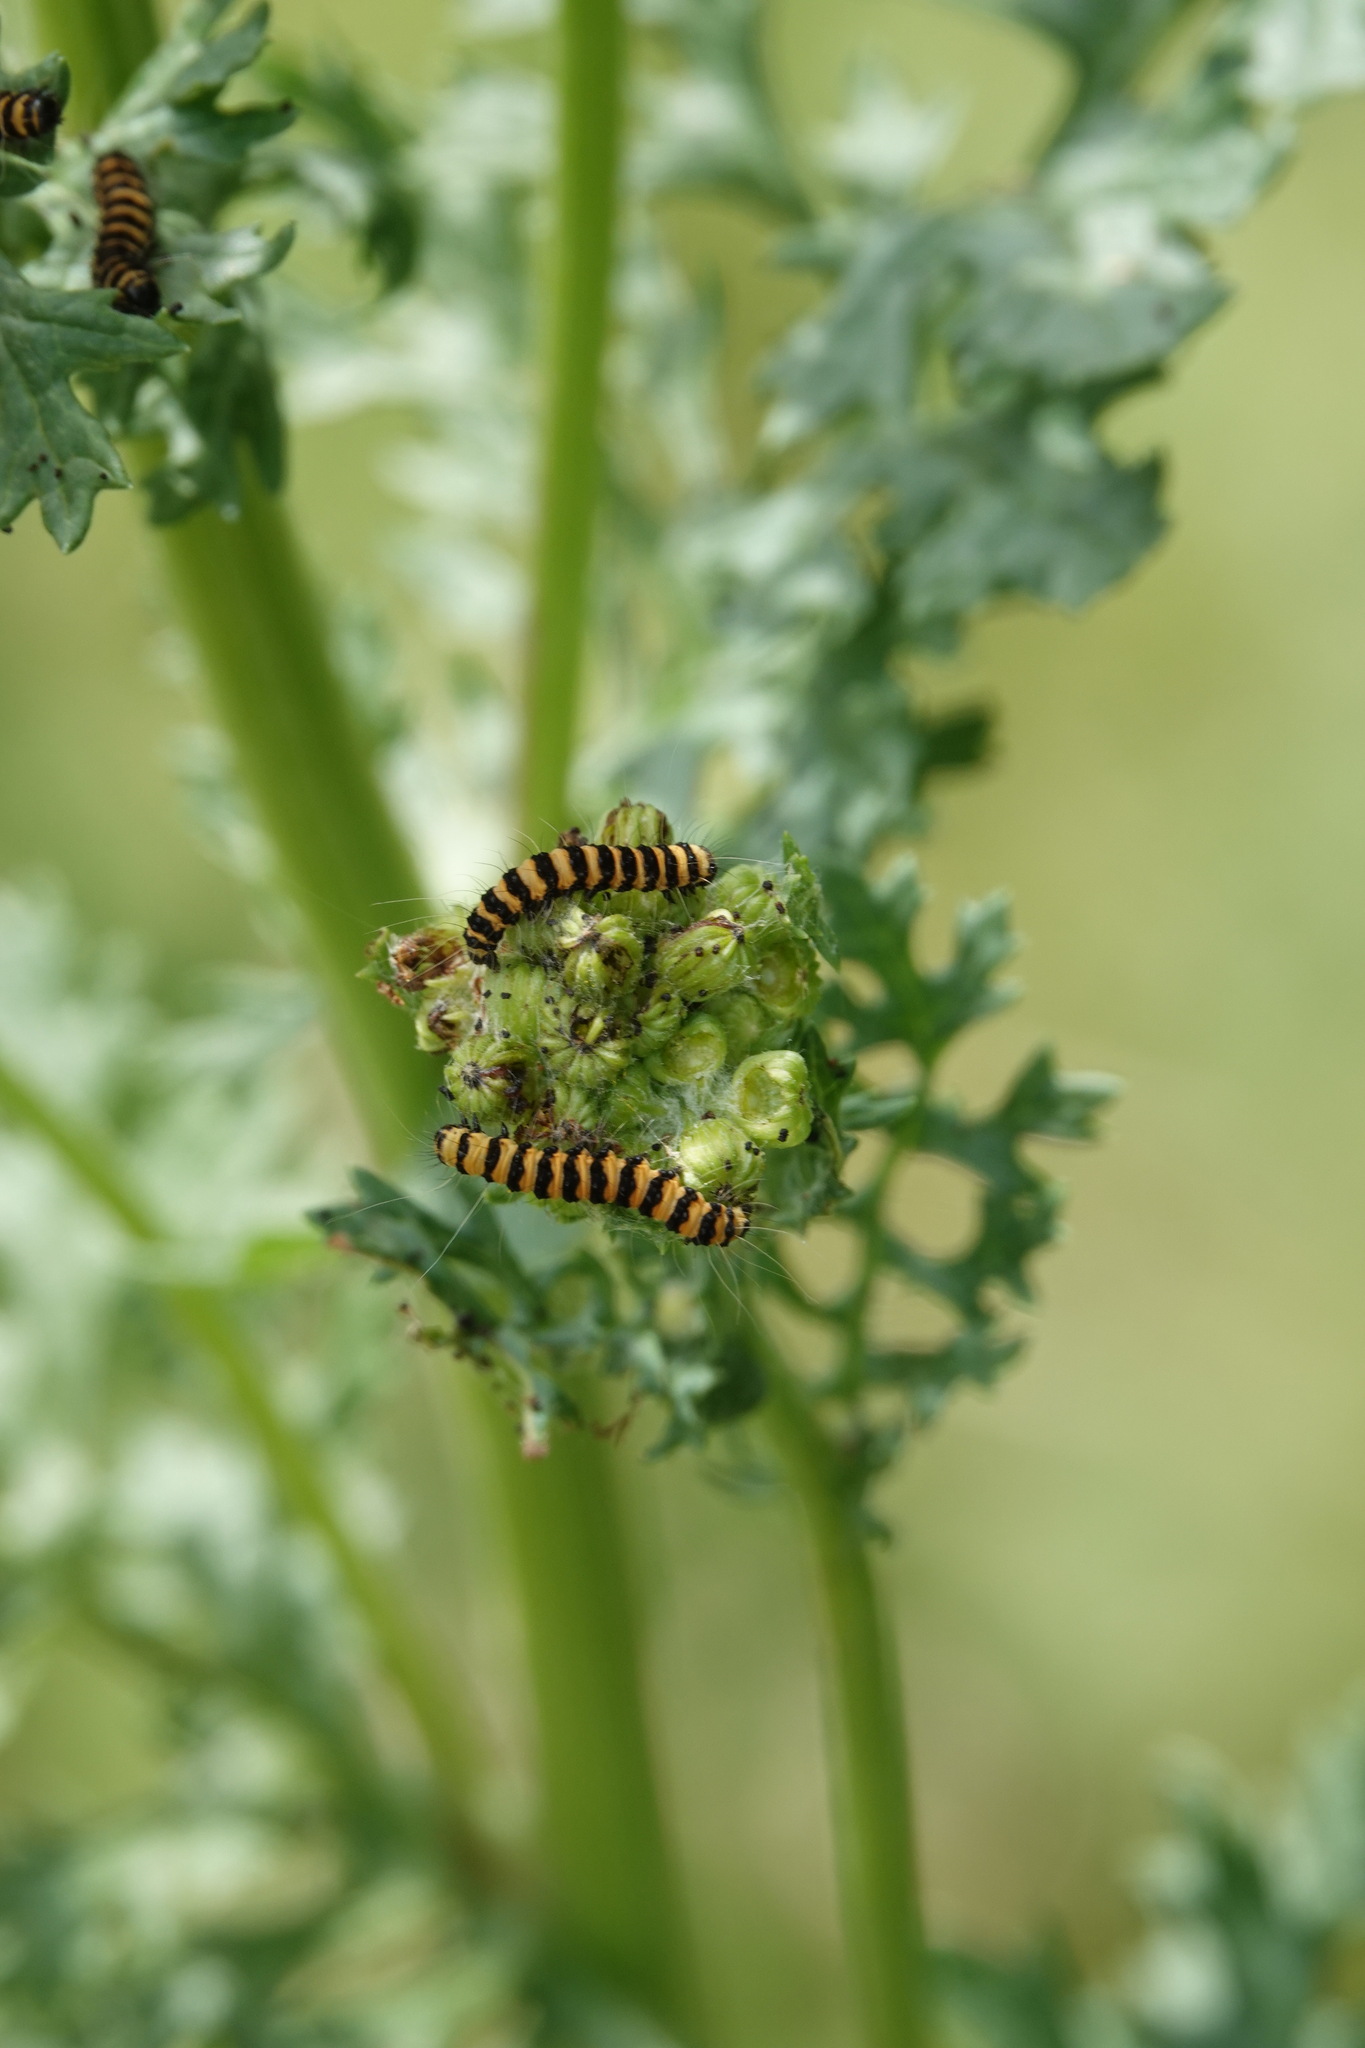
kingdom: Animalia
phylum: Arthropoda
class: Insecta
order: Lepidoptera
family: Erebidae
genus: Tyria
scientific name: Tyria jacobaeae
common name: Cinnabar
